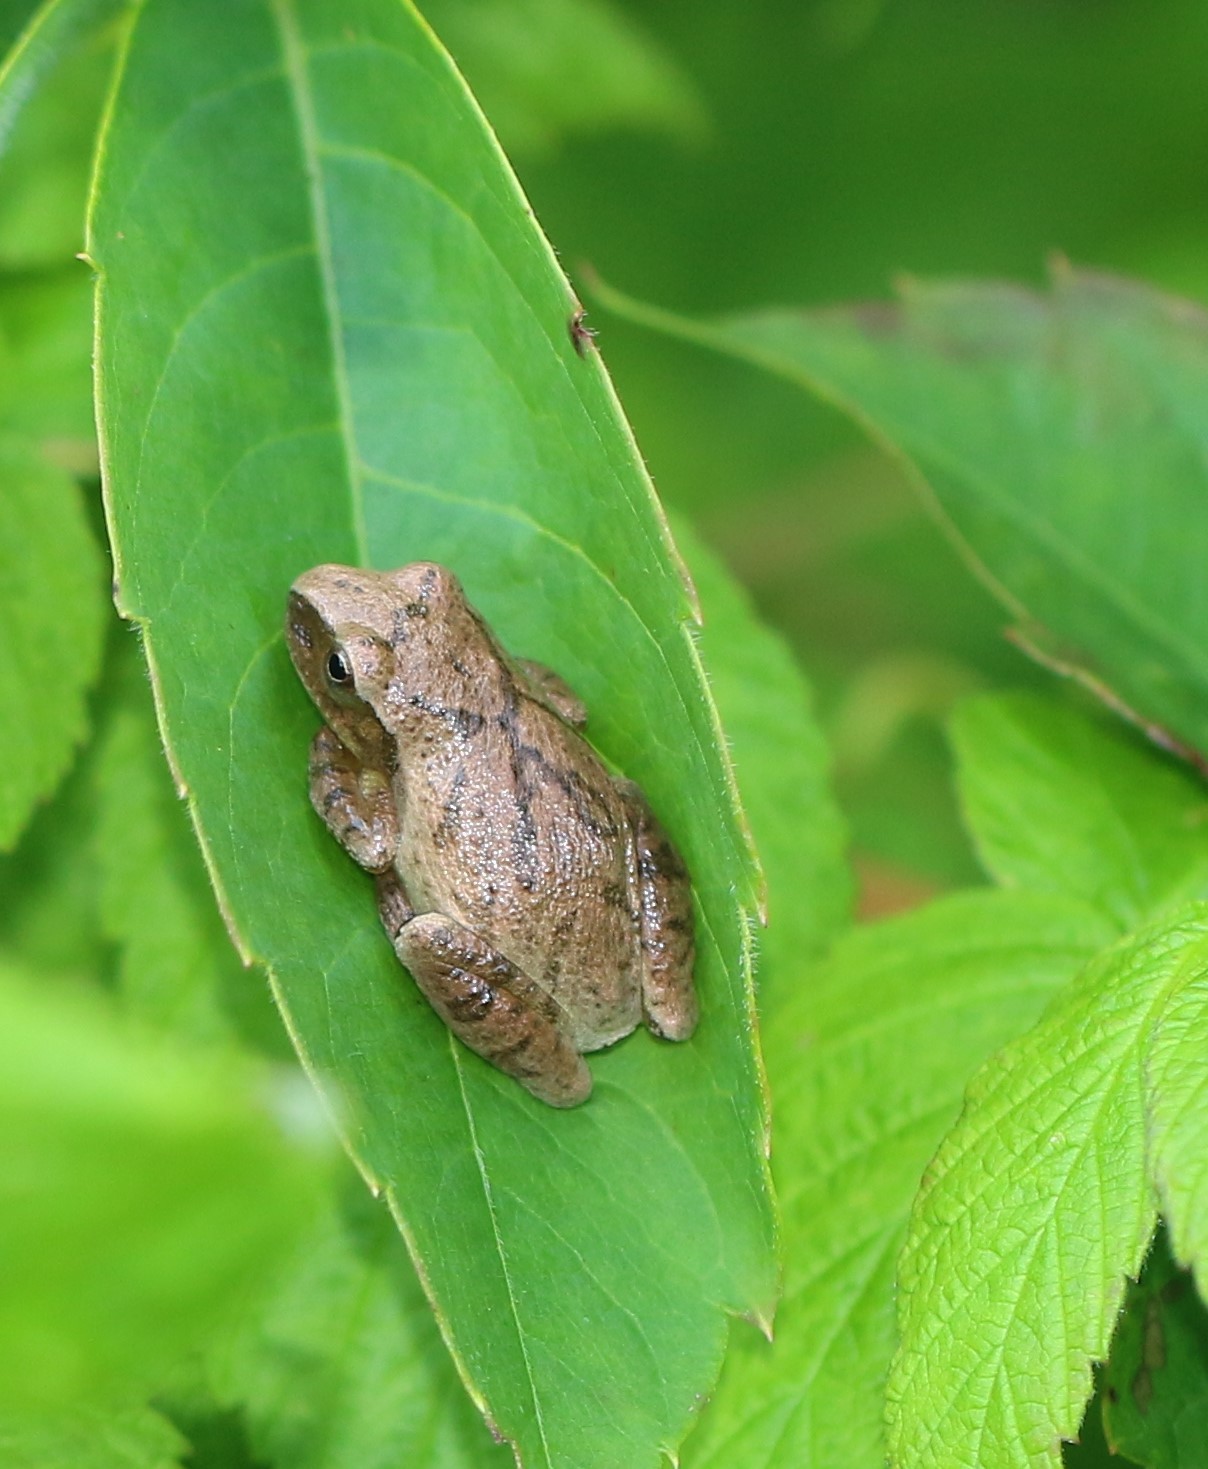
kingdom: Animalia
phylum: Chordata
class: Amphibia
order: Anura
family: Hylidae
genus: Pseudacris
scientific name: Pseudacris crucifer
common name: Spring peeper
